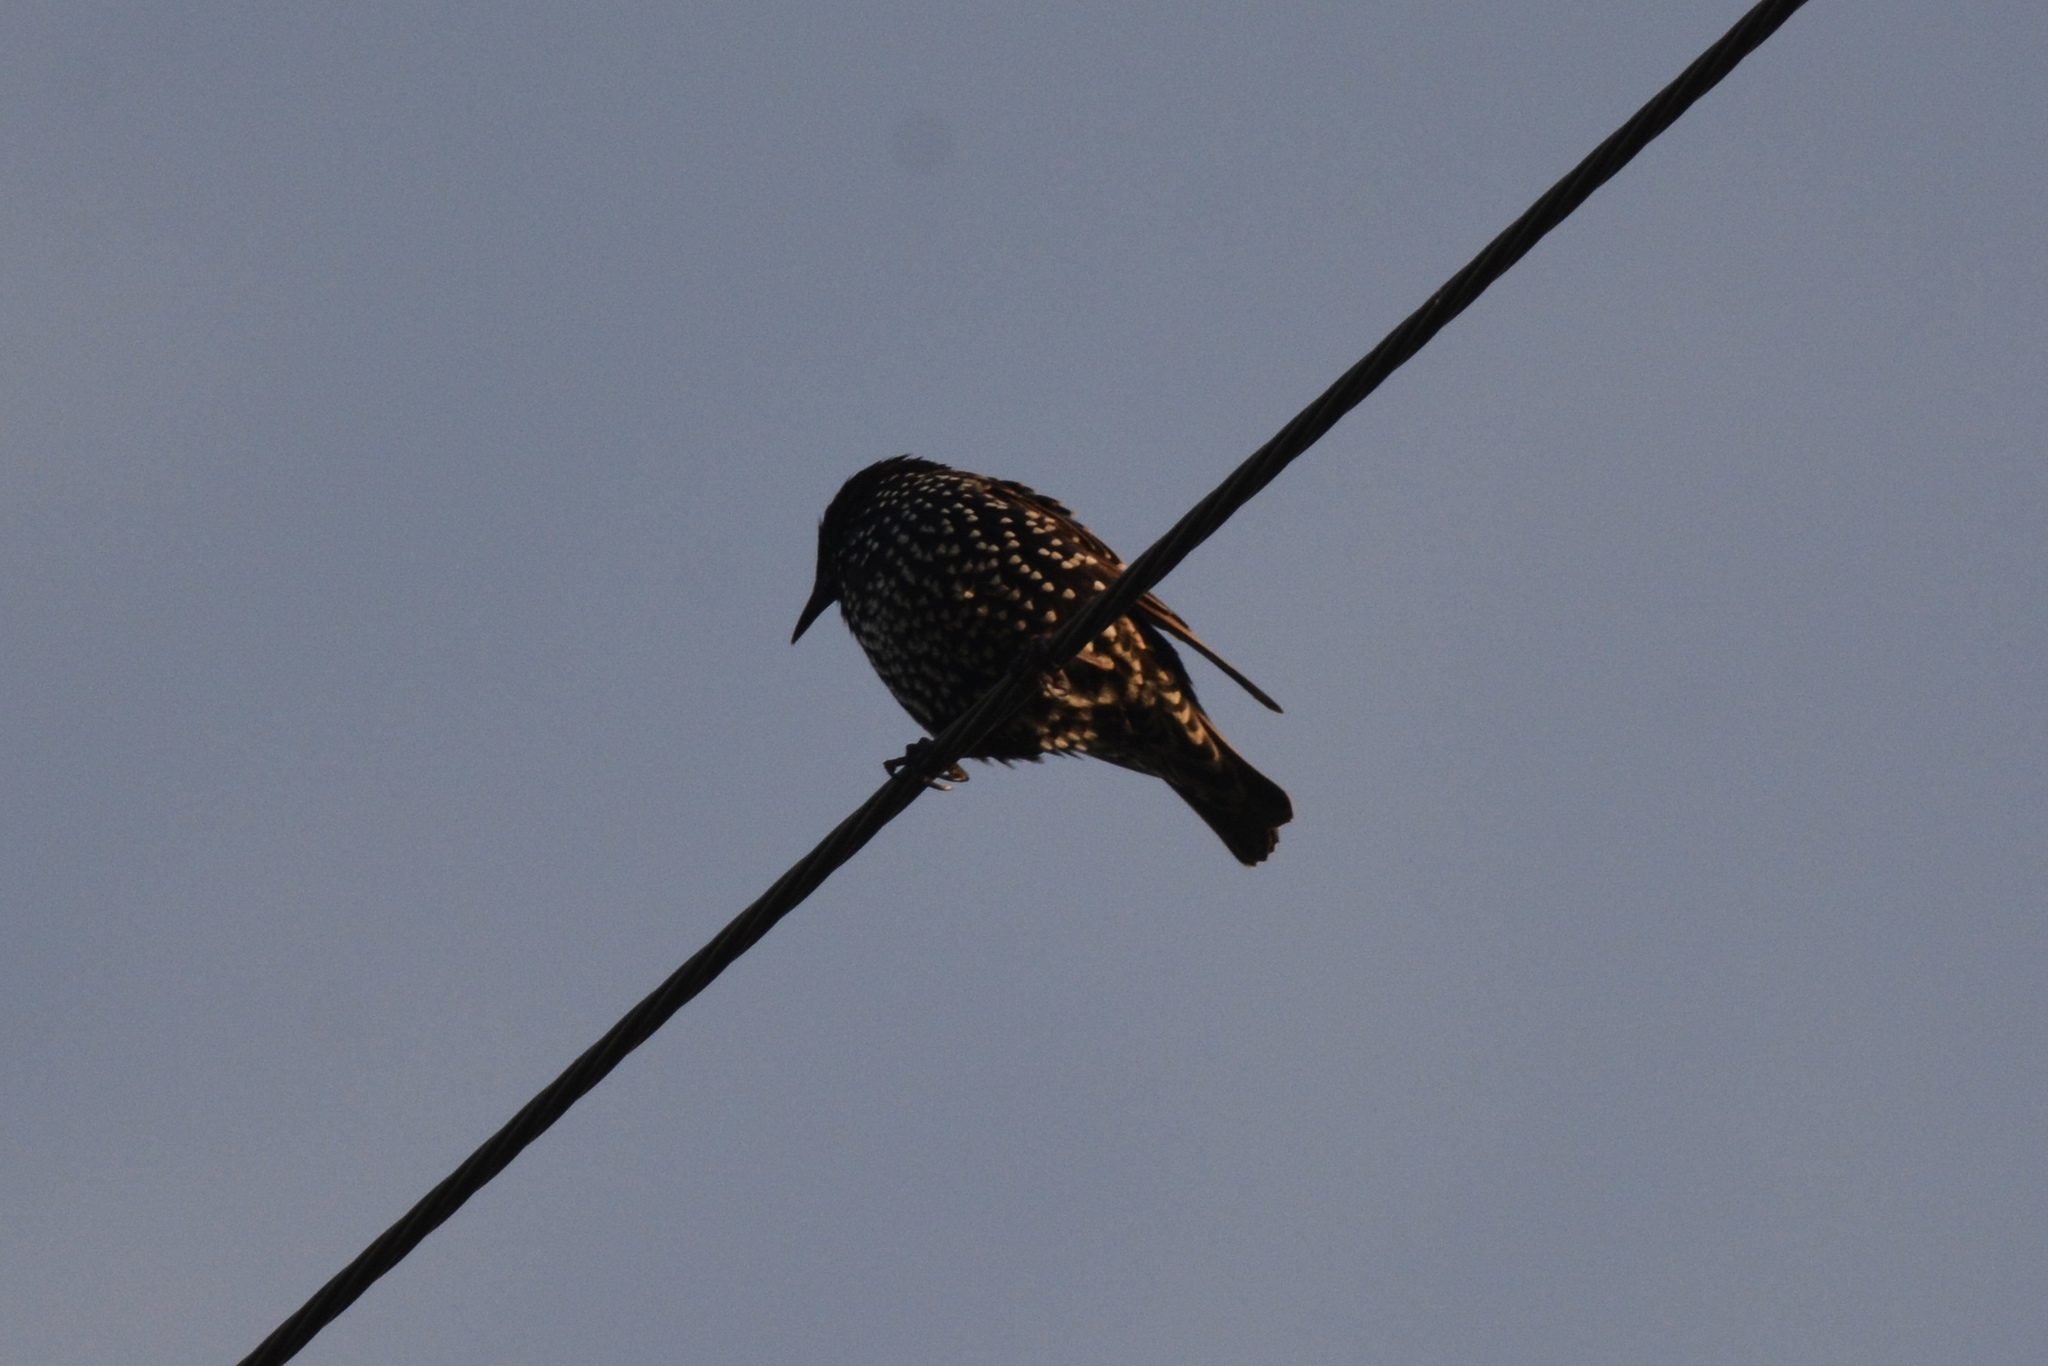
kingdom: Animalia
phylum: Chordata
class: Aves
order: Passeriformes
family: Sturnidae
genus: Sturnus
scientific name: Sturnus vulgaris
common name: Common starling
